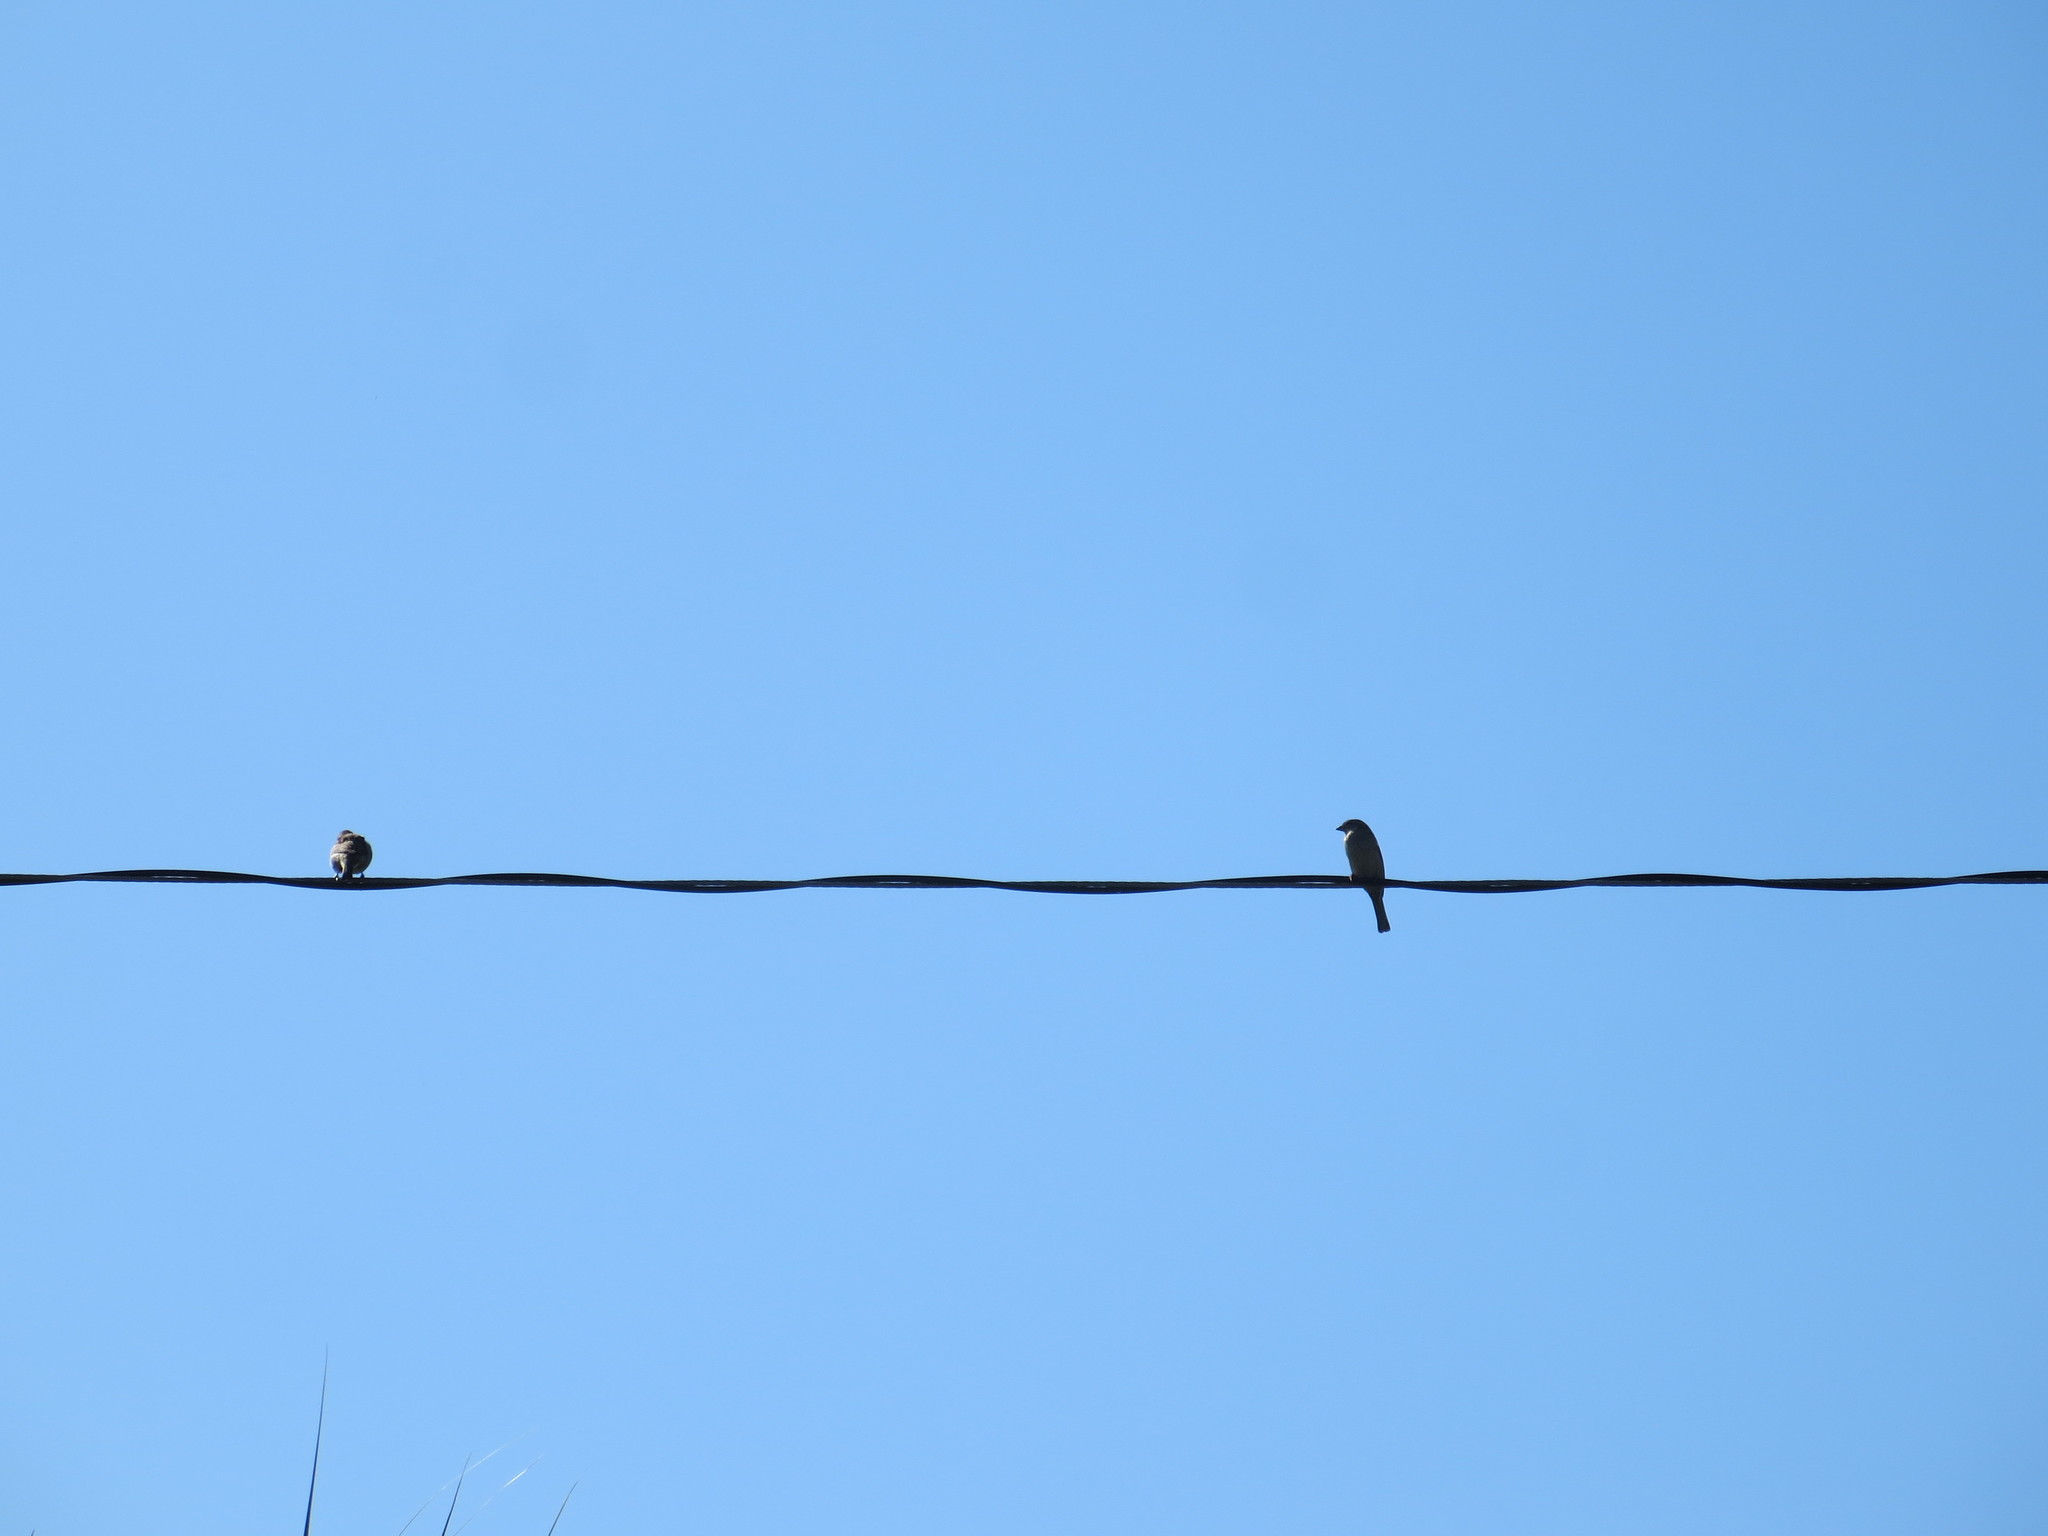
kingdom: Animalia
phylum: Chordata
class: Aves
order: Passeriformes
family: Passeridae
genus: Passer
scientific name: Passer domesticus
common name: House sparrow
